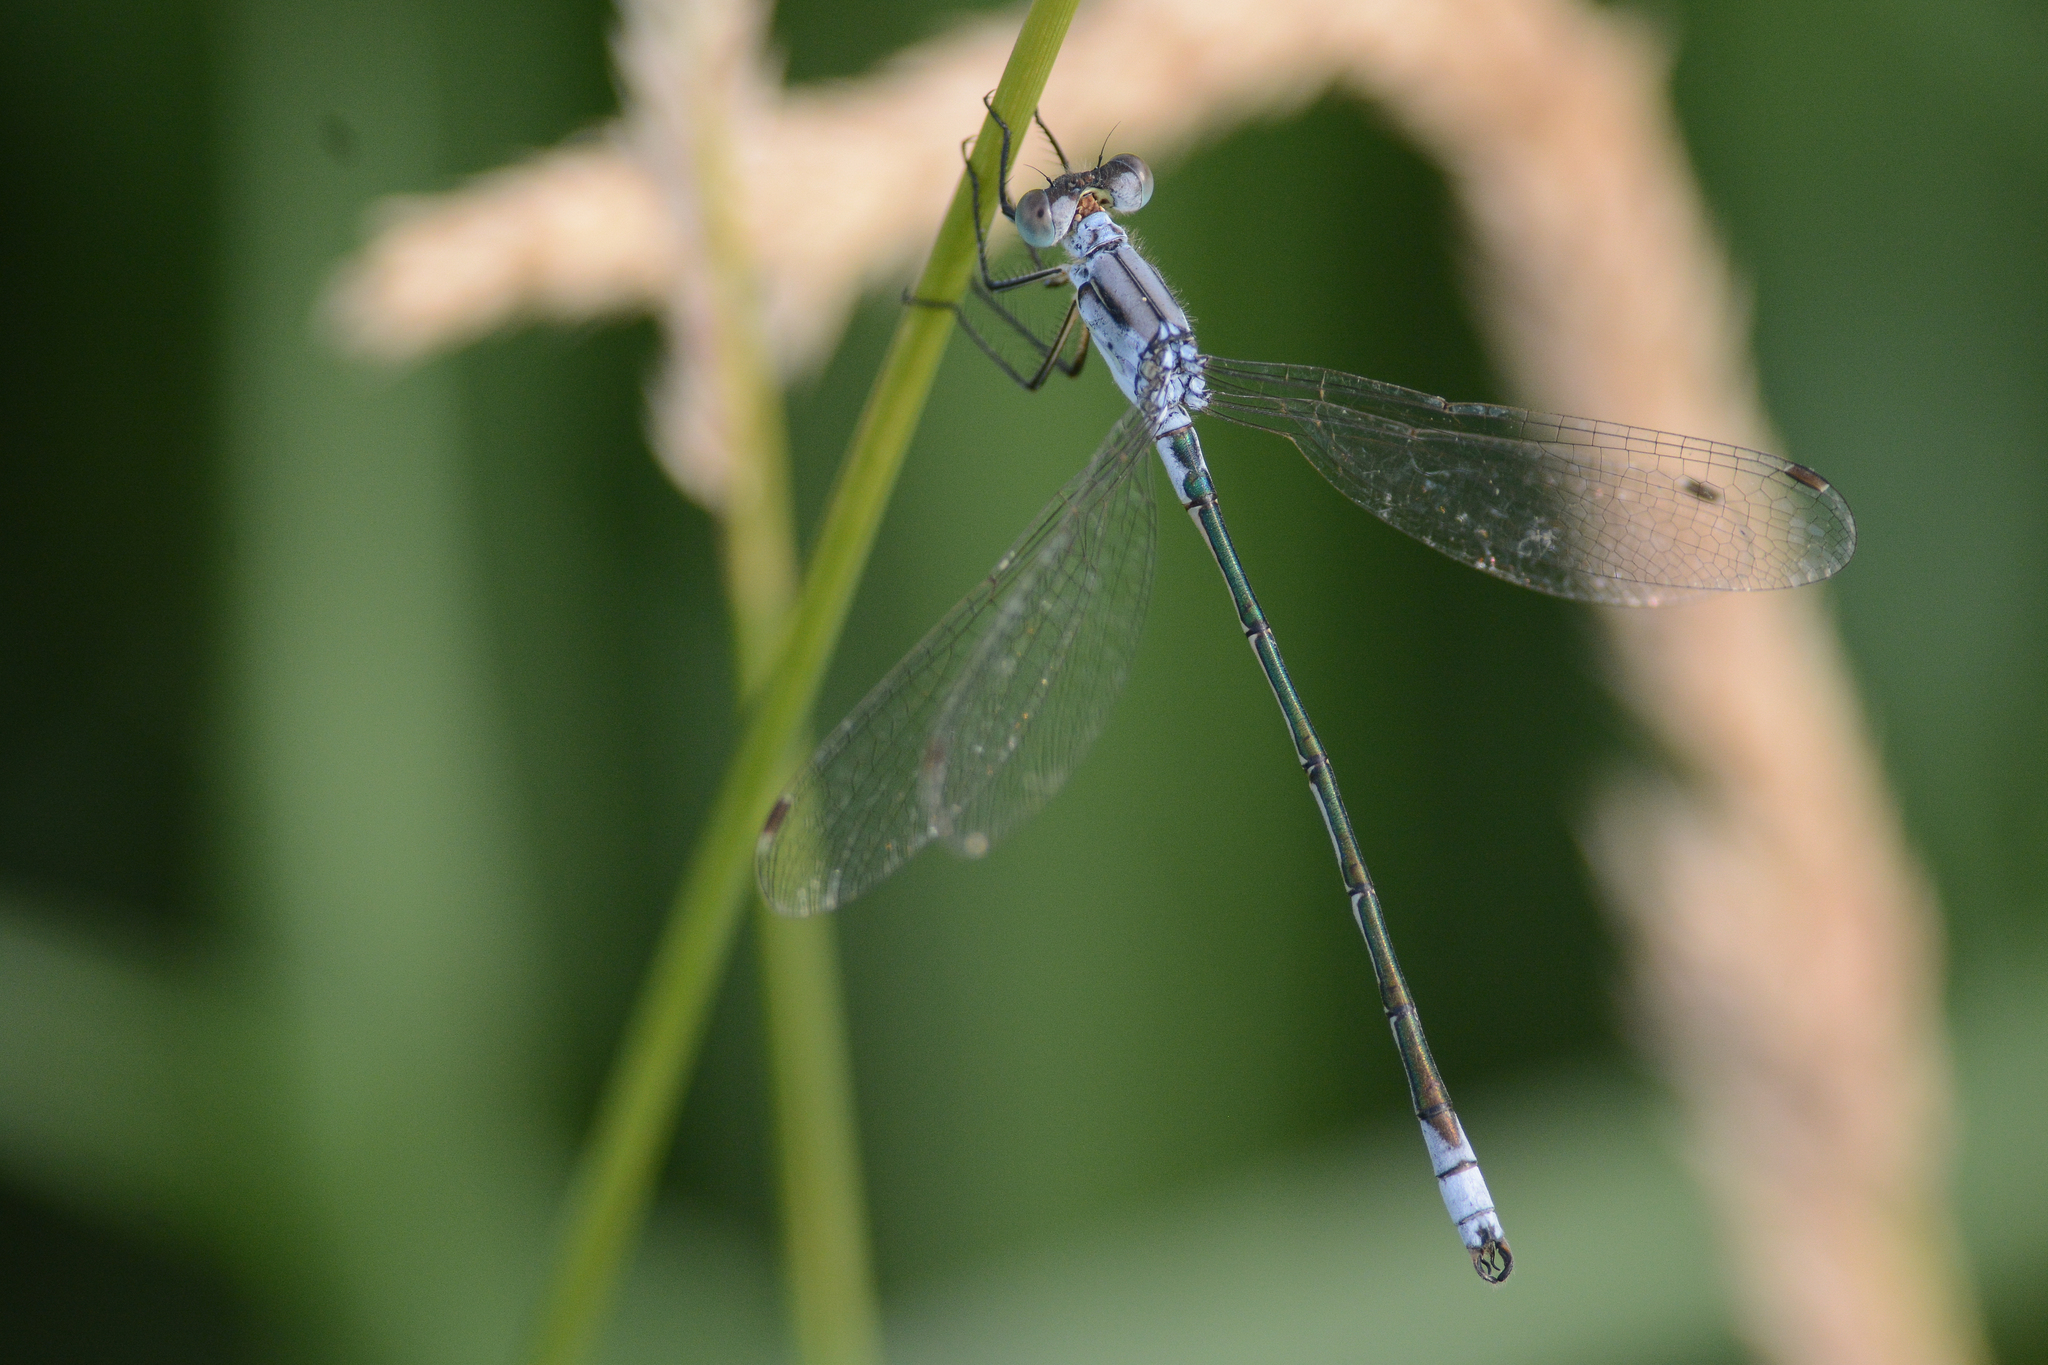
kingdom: Animalia
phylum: Arthropoda
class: Insecta
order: Odonata
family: Lestidae
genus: Lestes
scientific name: Lestes unguiculatus
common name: Lyre-tipped spreadwing
